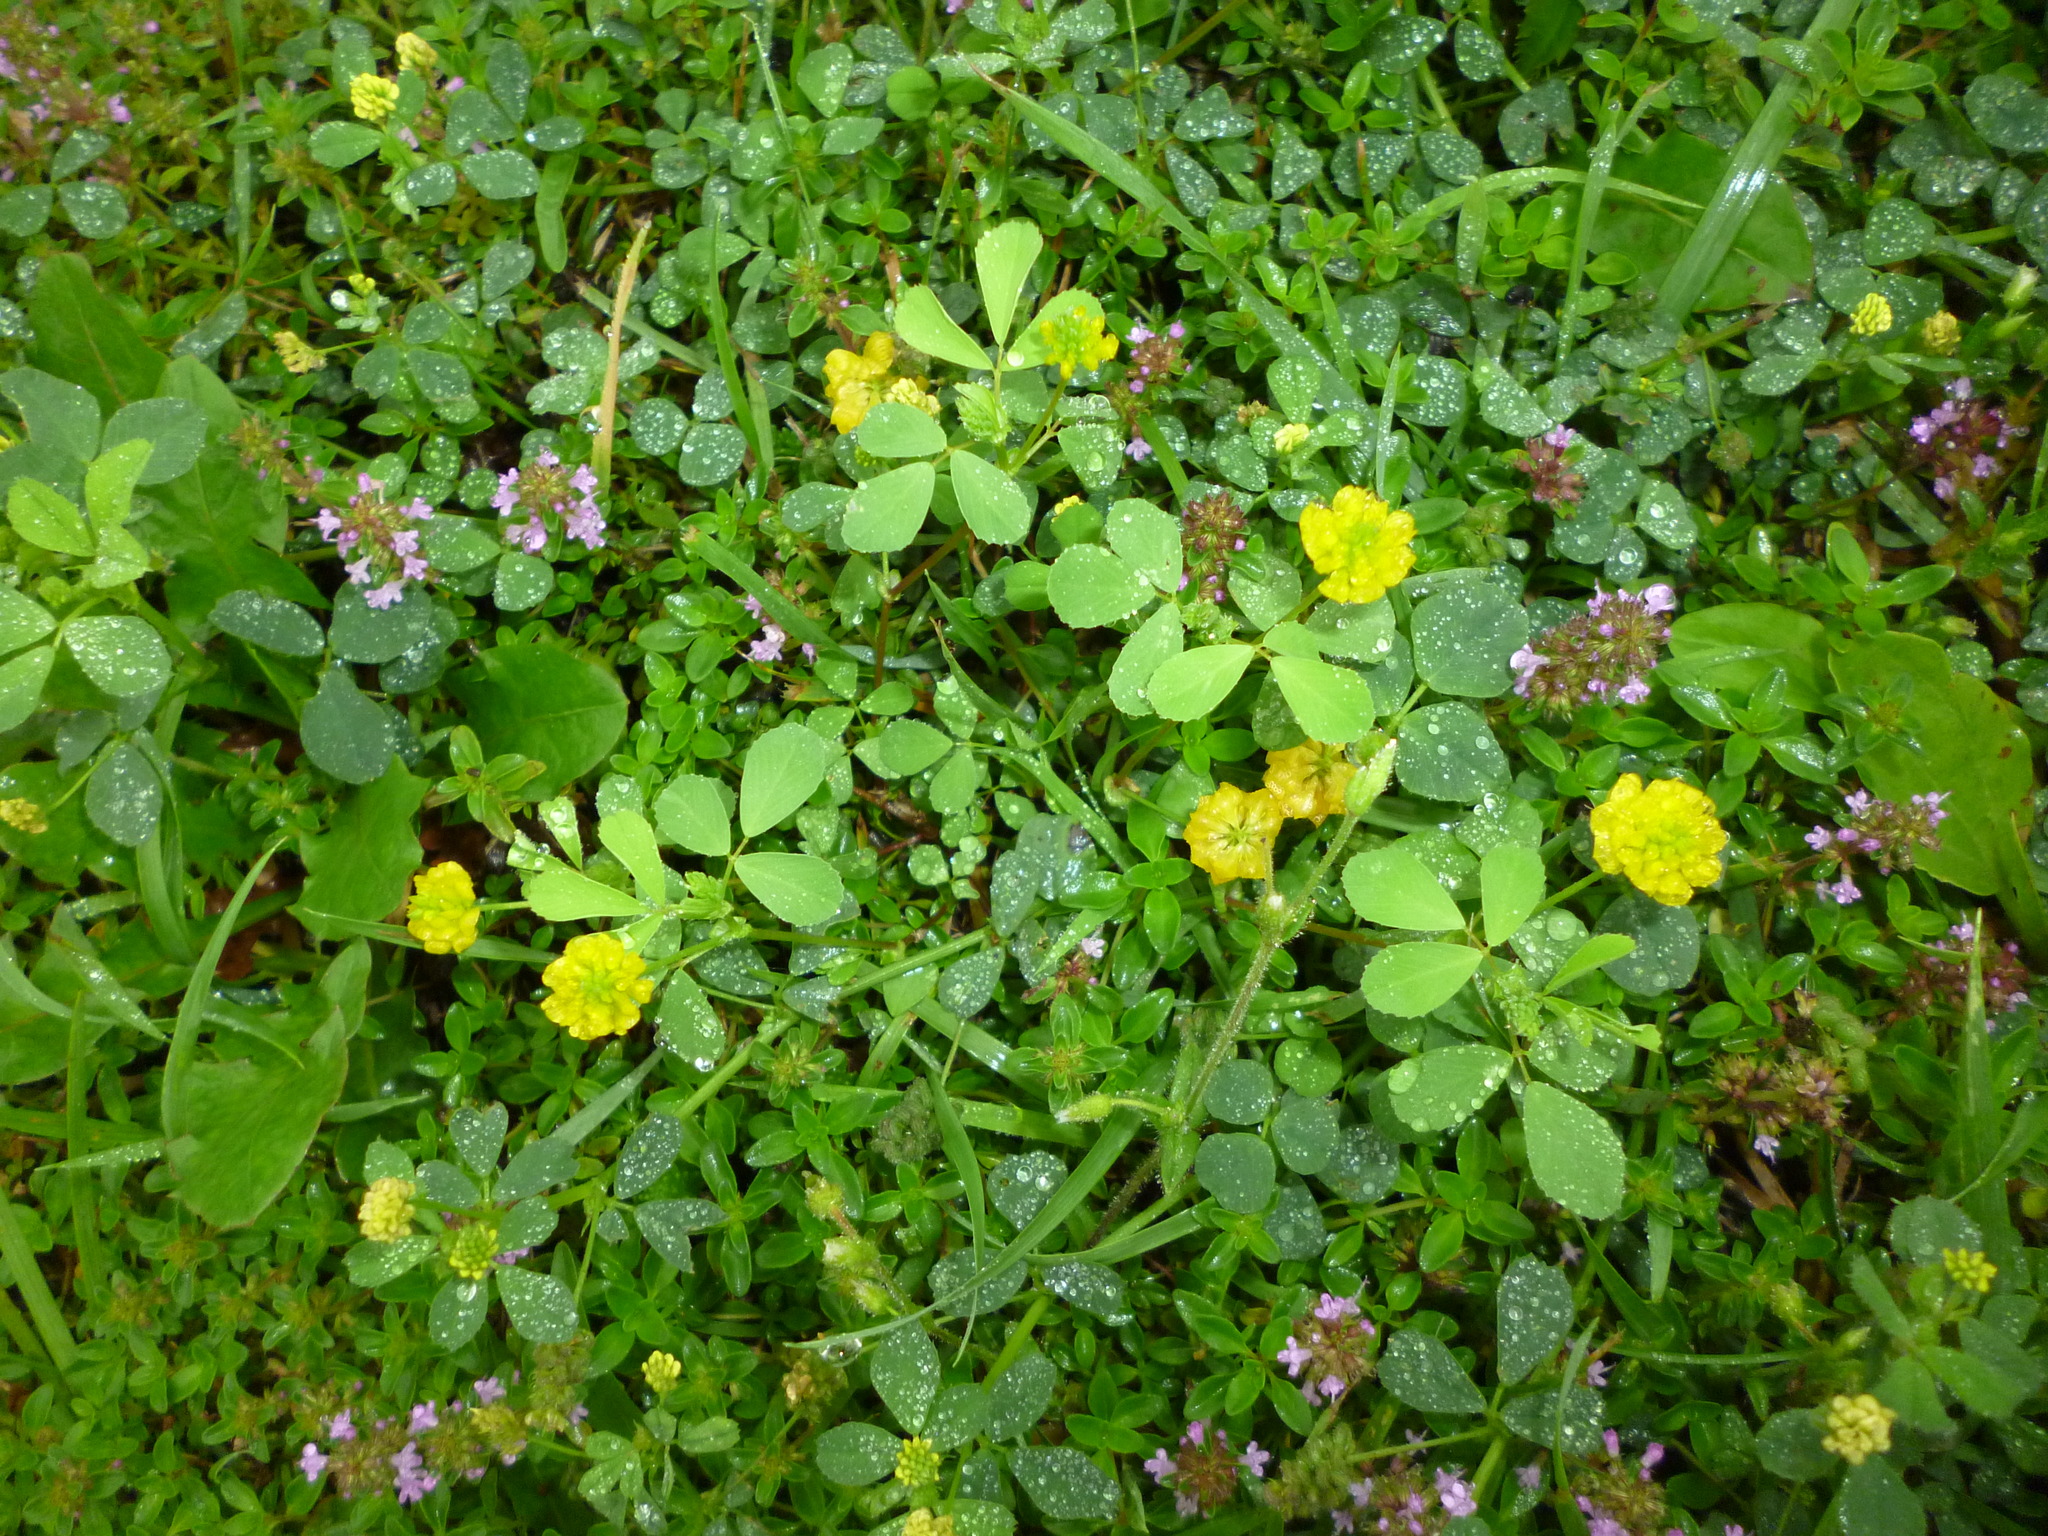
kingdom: Plantae
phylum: Tracheophyta
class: Magnoliopsida
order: Fabales
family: Fabaceae
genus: Trifolium
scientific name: Trifolium campestre
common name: Field clover
